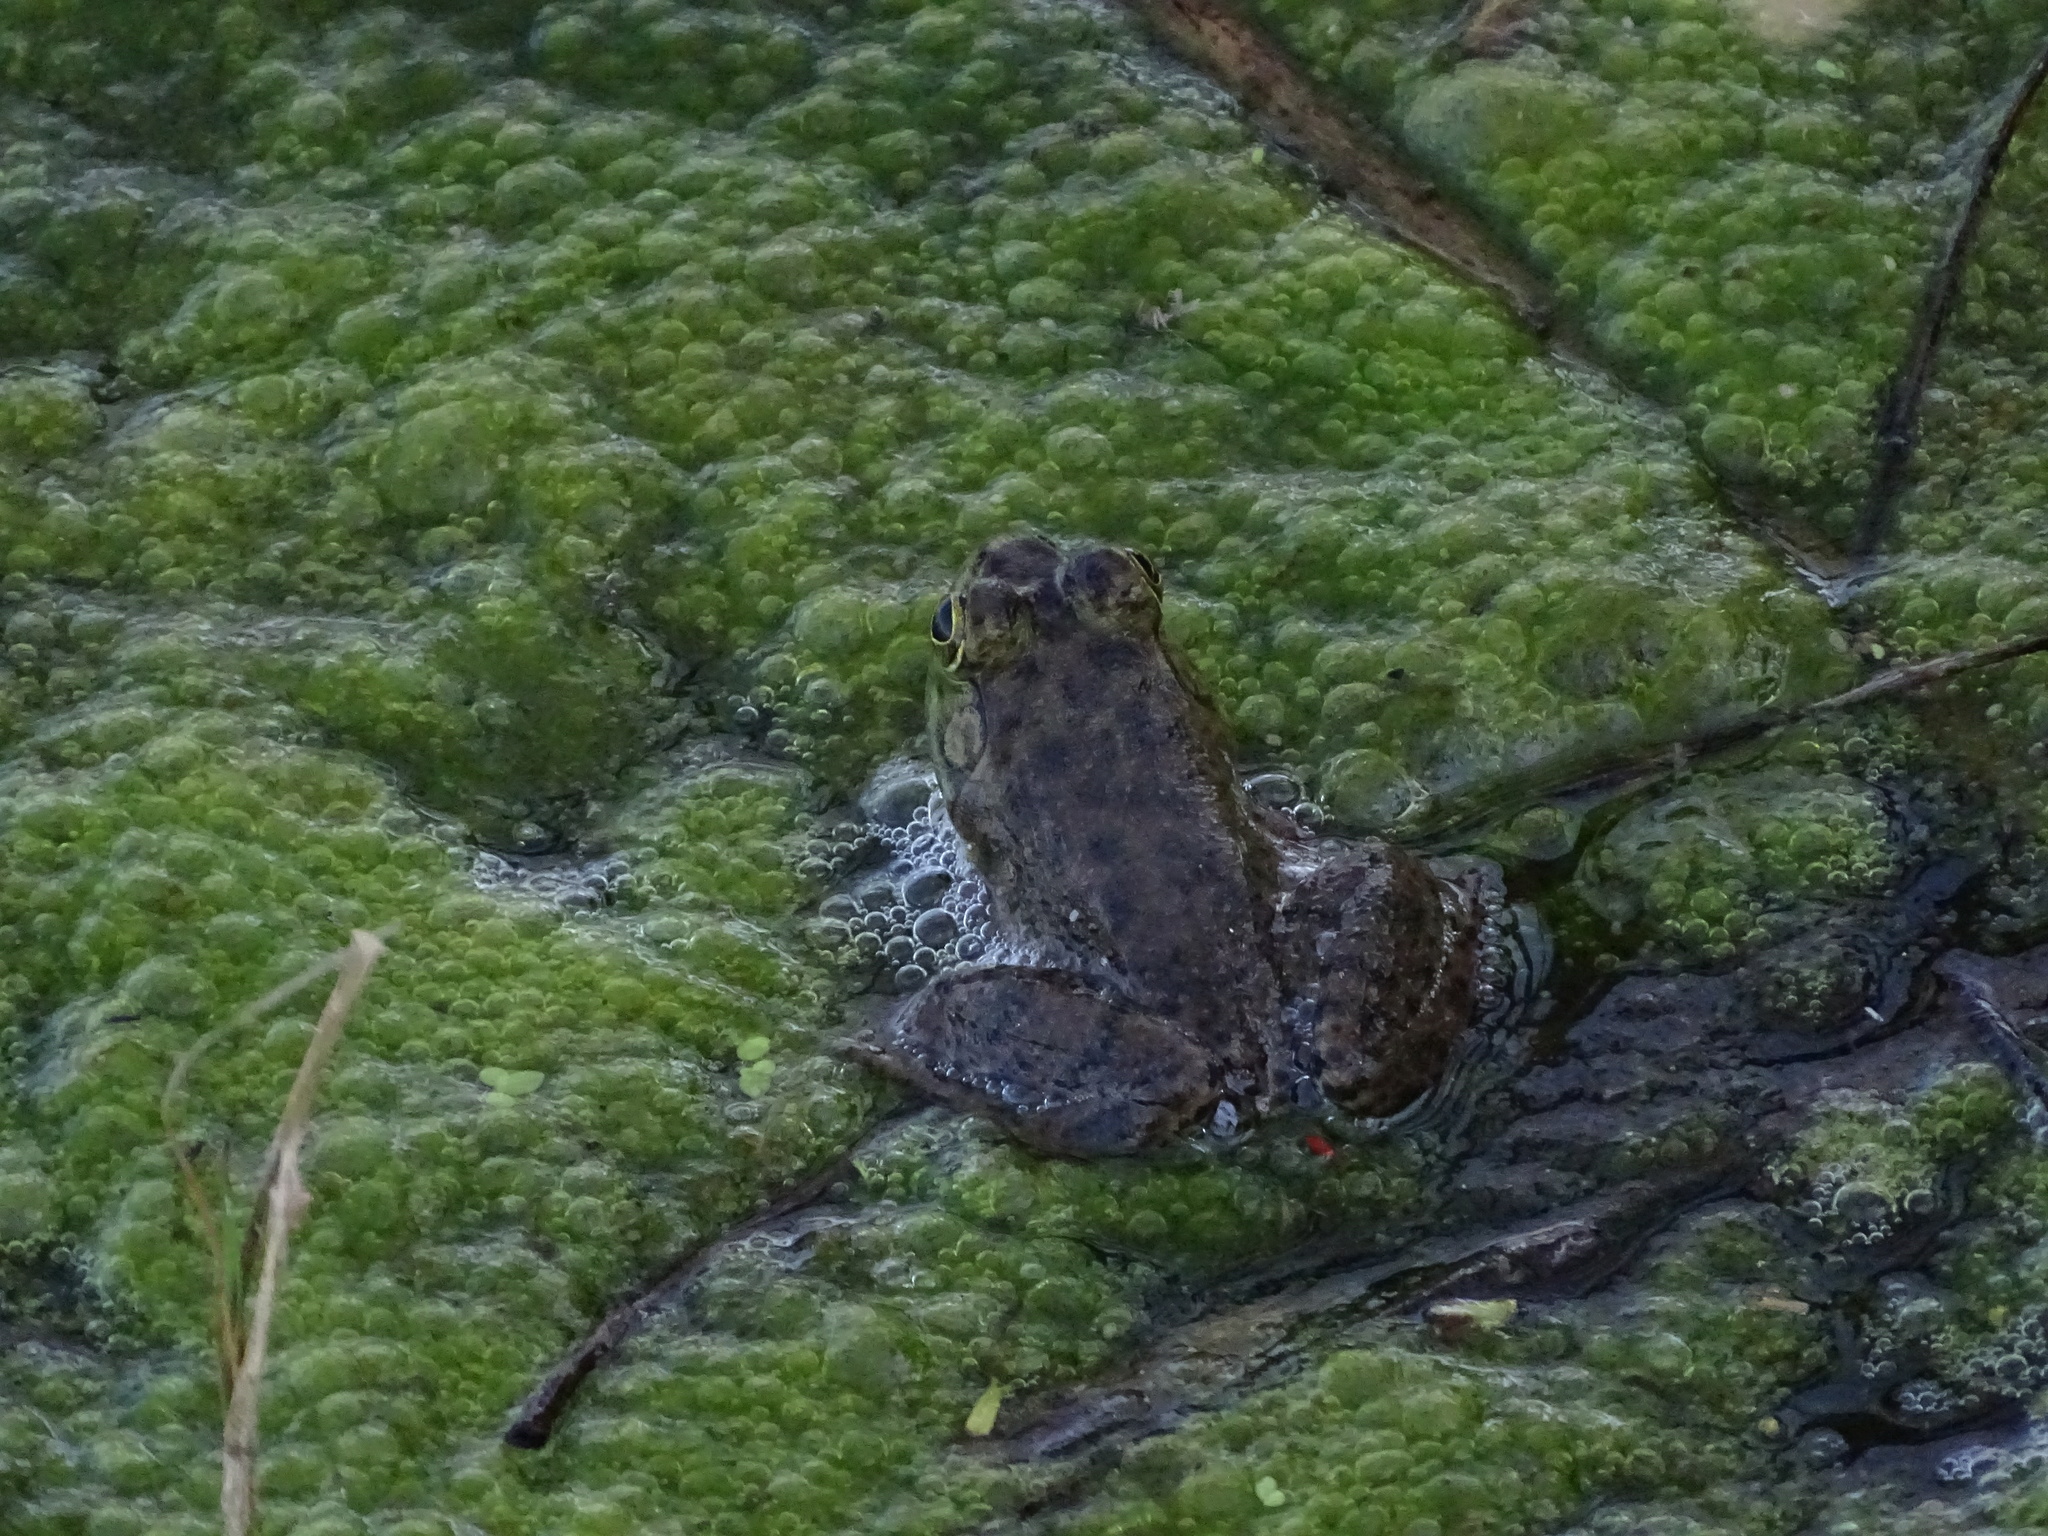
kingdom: Animalia
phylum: Chordata
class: Amphibia
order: Anura
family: Ranidae
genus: Lithobates
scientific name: Lithobates catesbeianus
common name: American bullfrog
